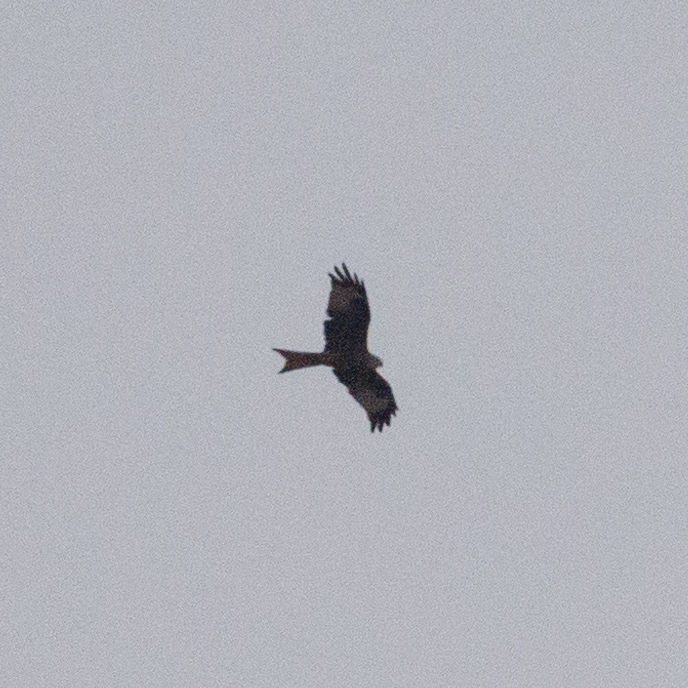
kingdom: Animalia
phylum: Chordata
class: Aves
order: Accipitriformes
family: Accipitridae
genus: Milvus
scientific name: Milvus milvus
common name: Red kite
